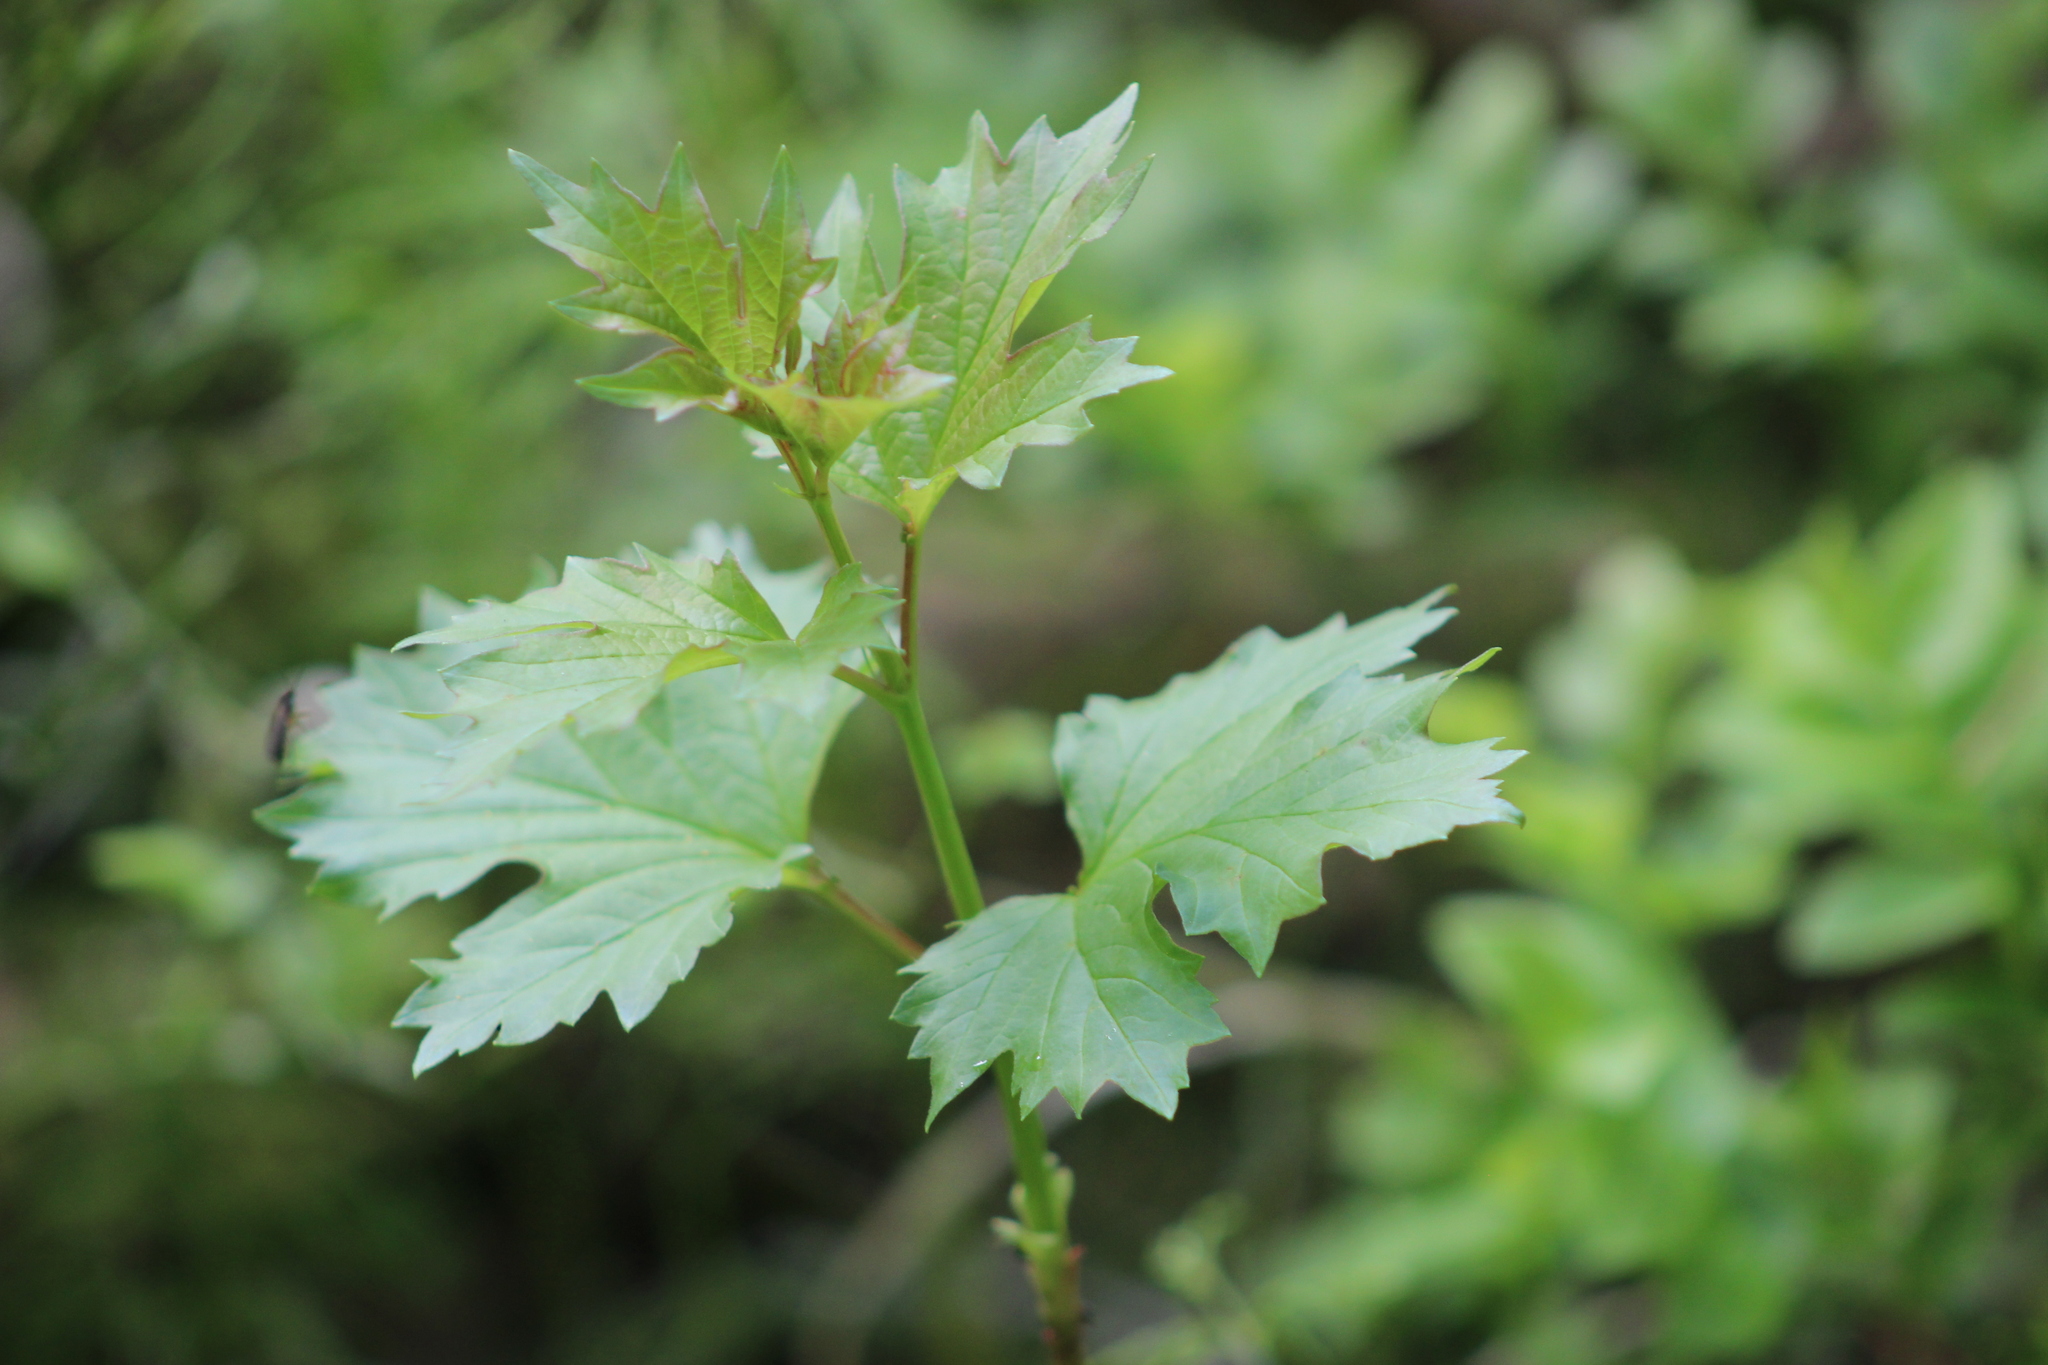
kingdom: Plantae
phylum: Tracheophyta
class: Magnoliopsida
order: Dipsacales
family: Viburnaceae
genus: Viburnum
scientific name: Viburnum opulus
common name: Guelder-rose
